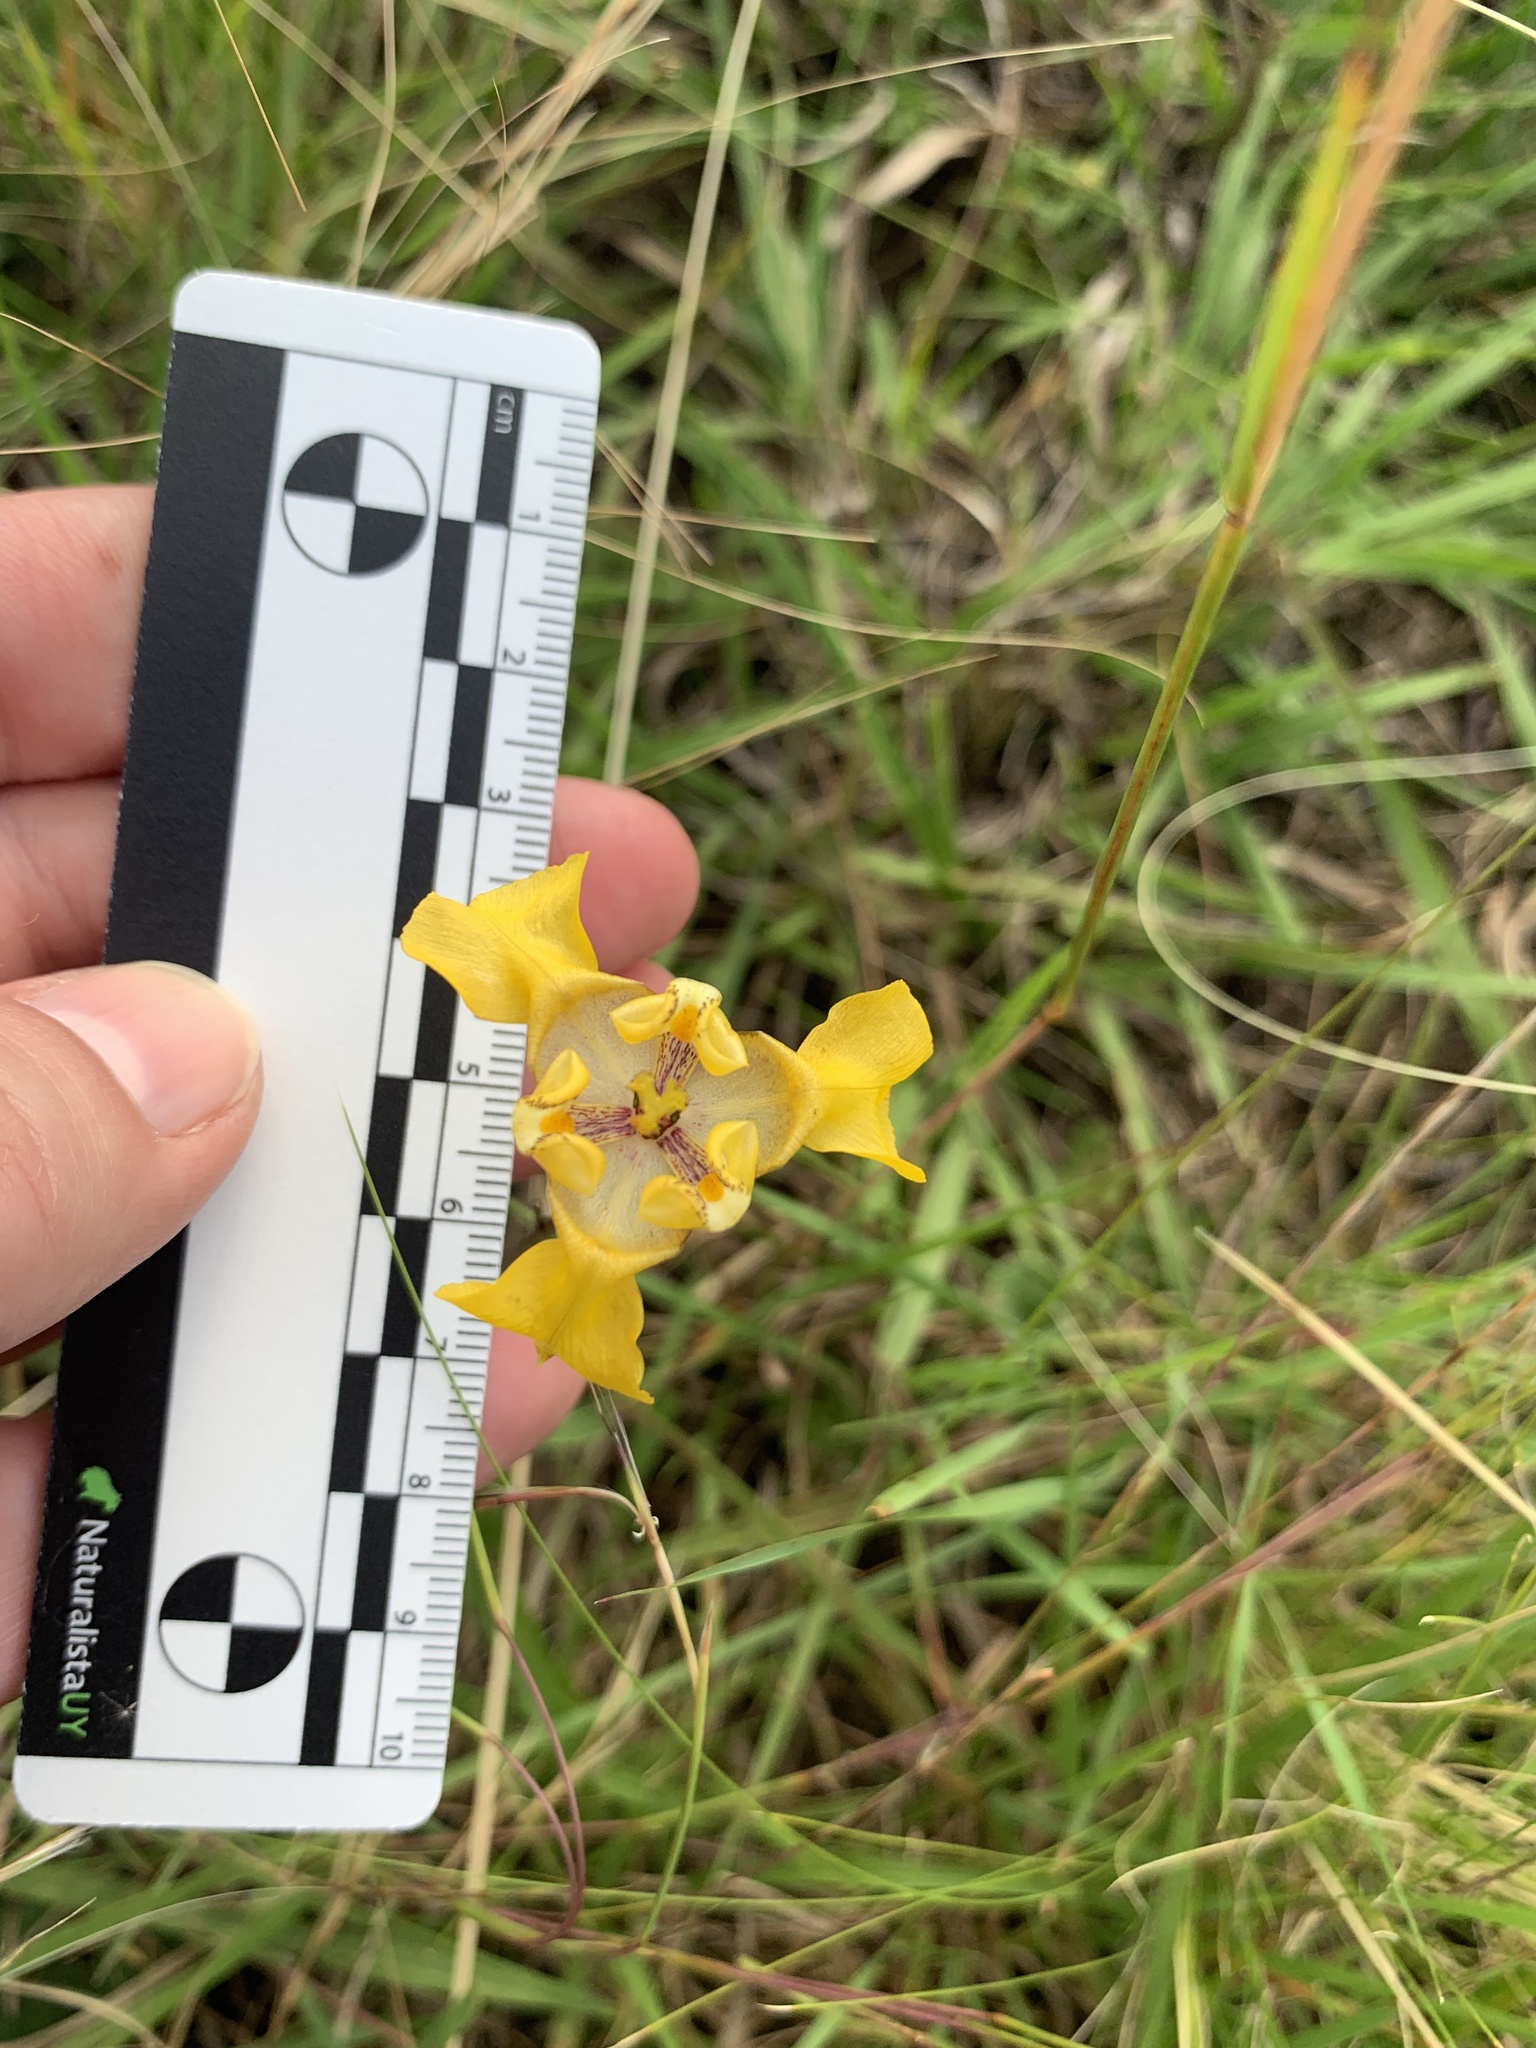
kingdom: Plantae
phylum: Tracheophyta
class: Liliopsida
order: Asparagales
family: Iridaceae
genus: Cypella
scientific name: Cypella fucata
